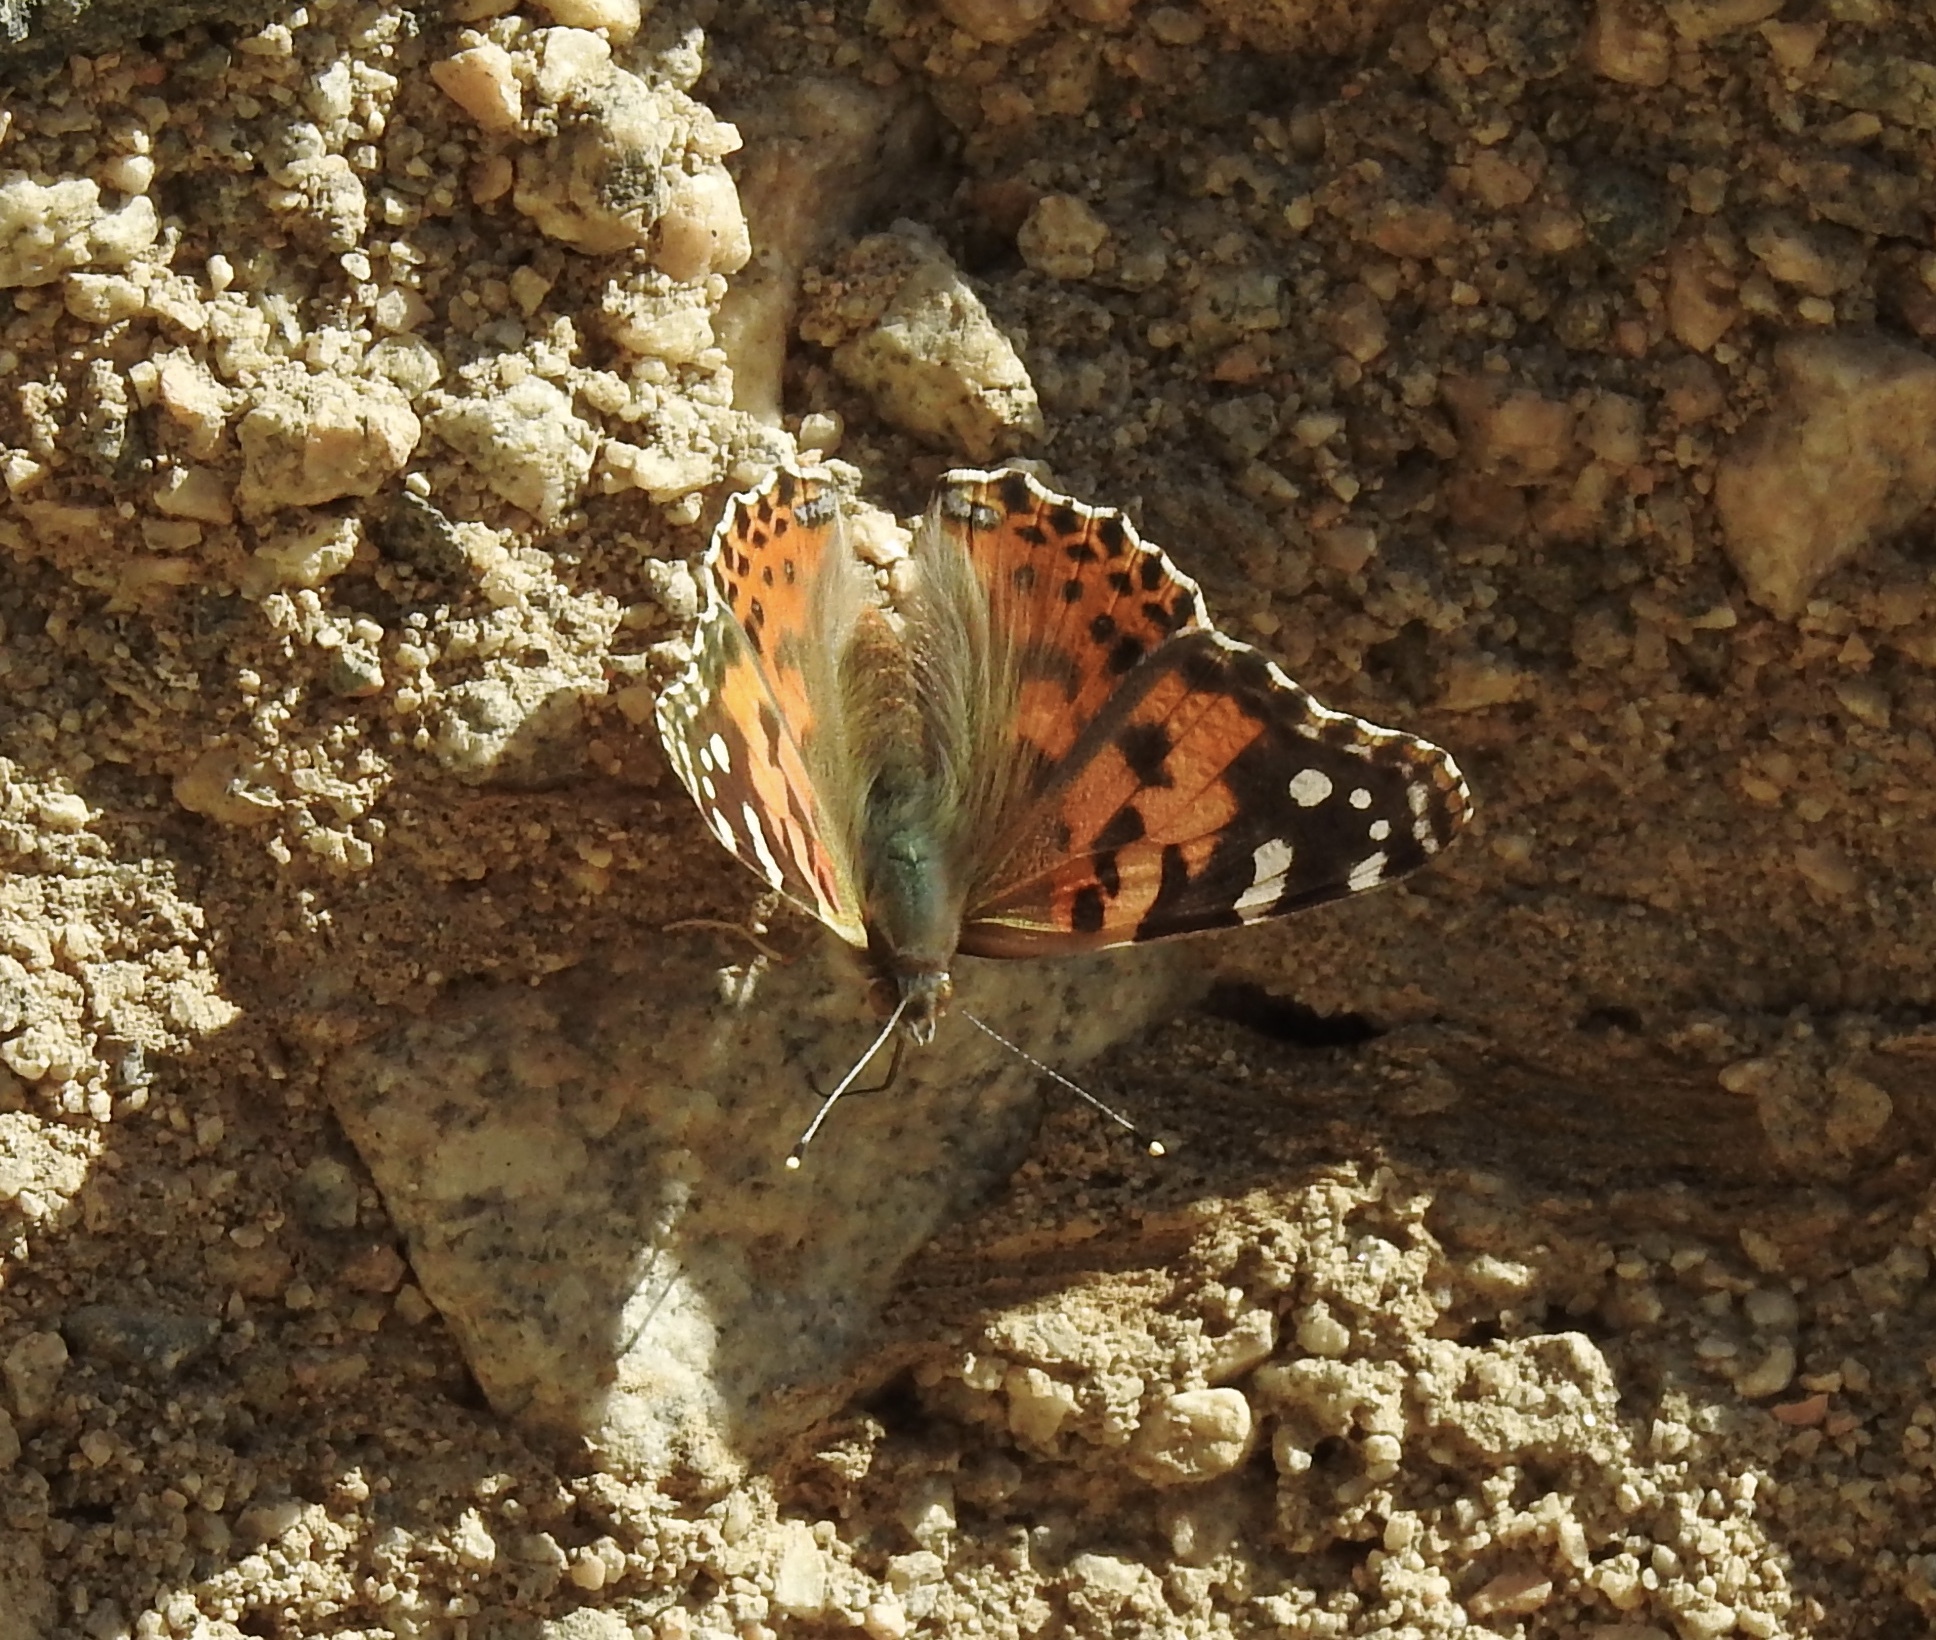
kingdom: Animalia
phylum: Arthropoda
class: Insecta
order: Lepidoptera
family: Nymphalidae
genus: Vanessa
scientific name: Vanessa cardui
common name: Painted lady
